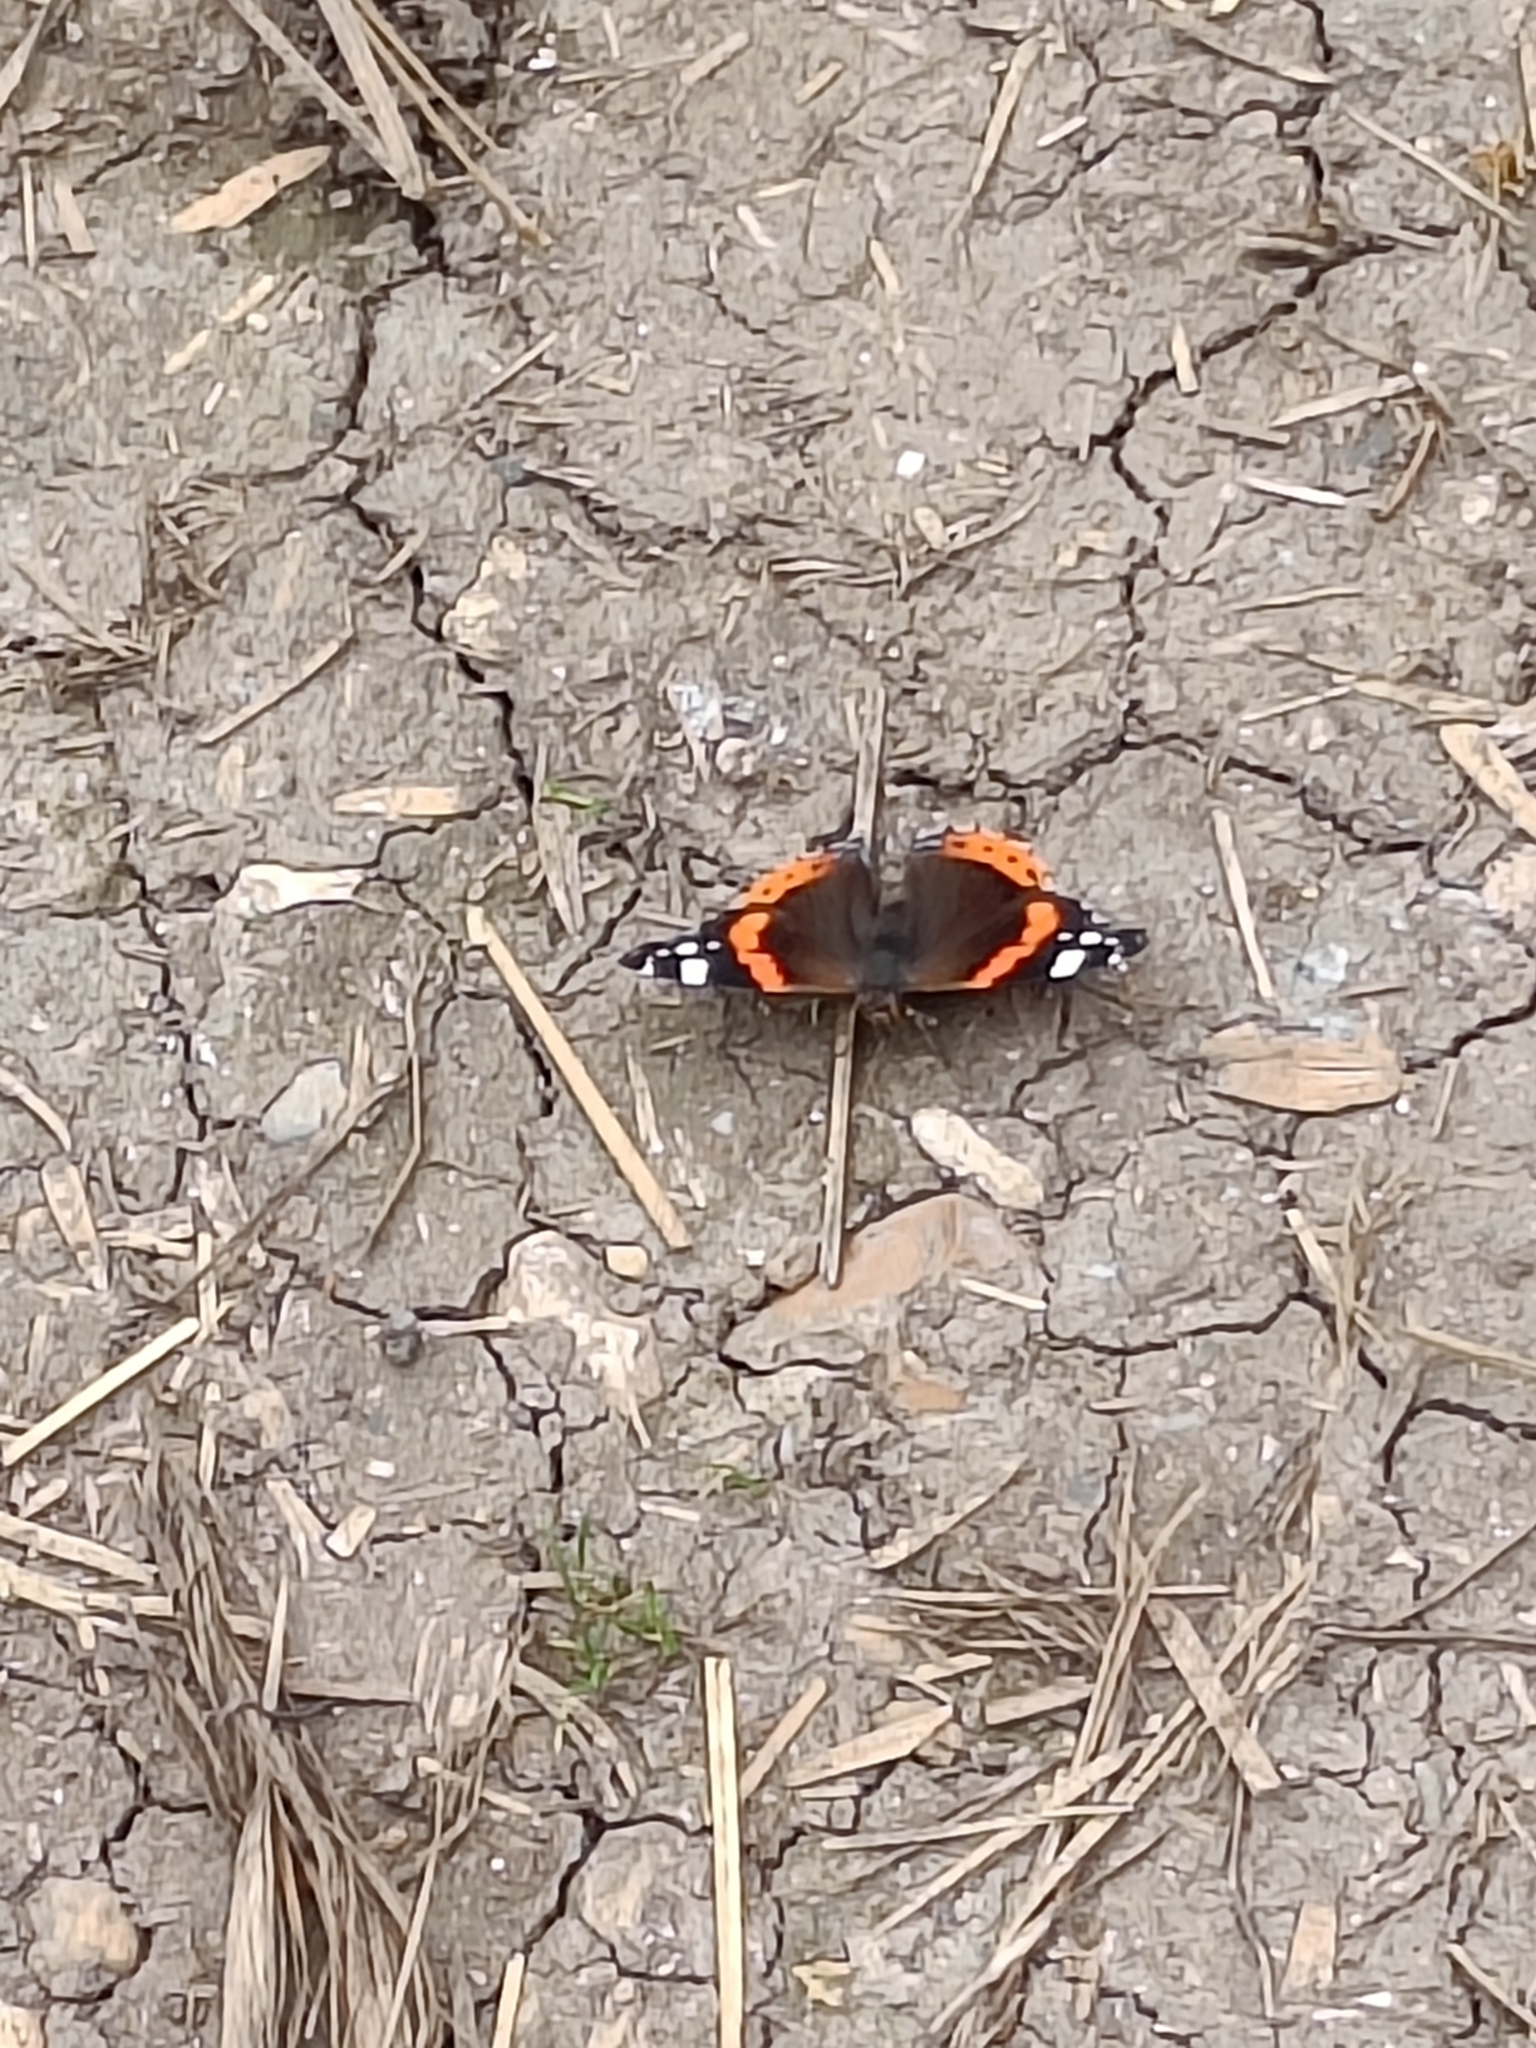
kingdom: Animalia
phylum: Arthropoda
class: Insecta
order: Lepidoptera
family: Nymphalidae
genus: Vanessa
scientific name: Vanessa atalanta
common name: Red admiral
